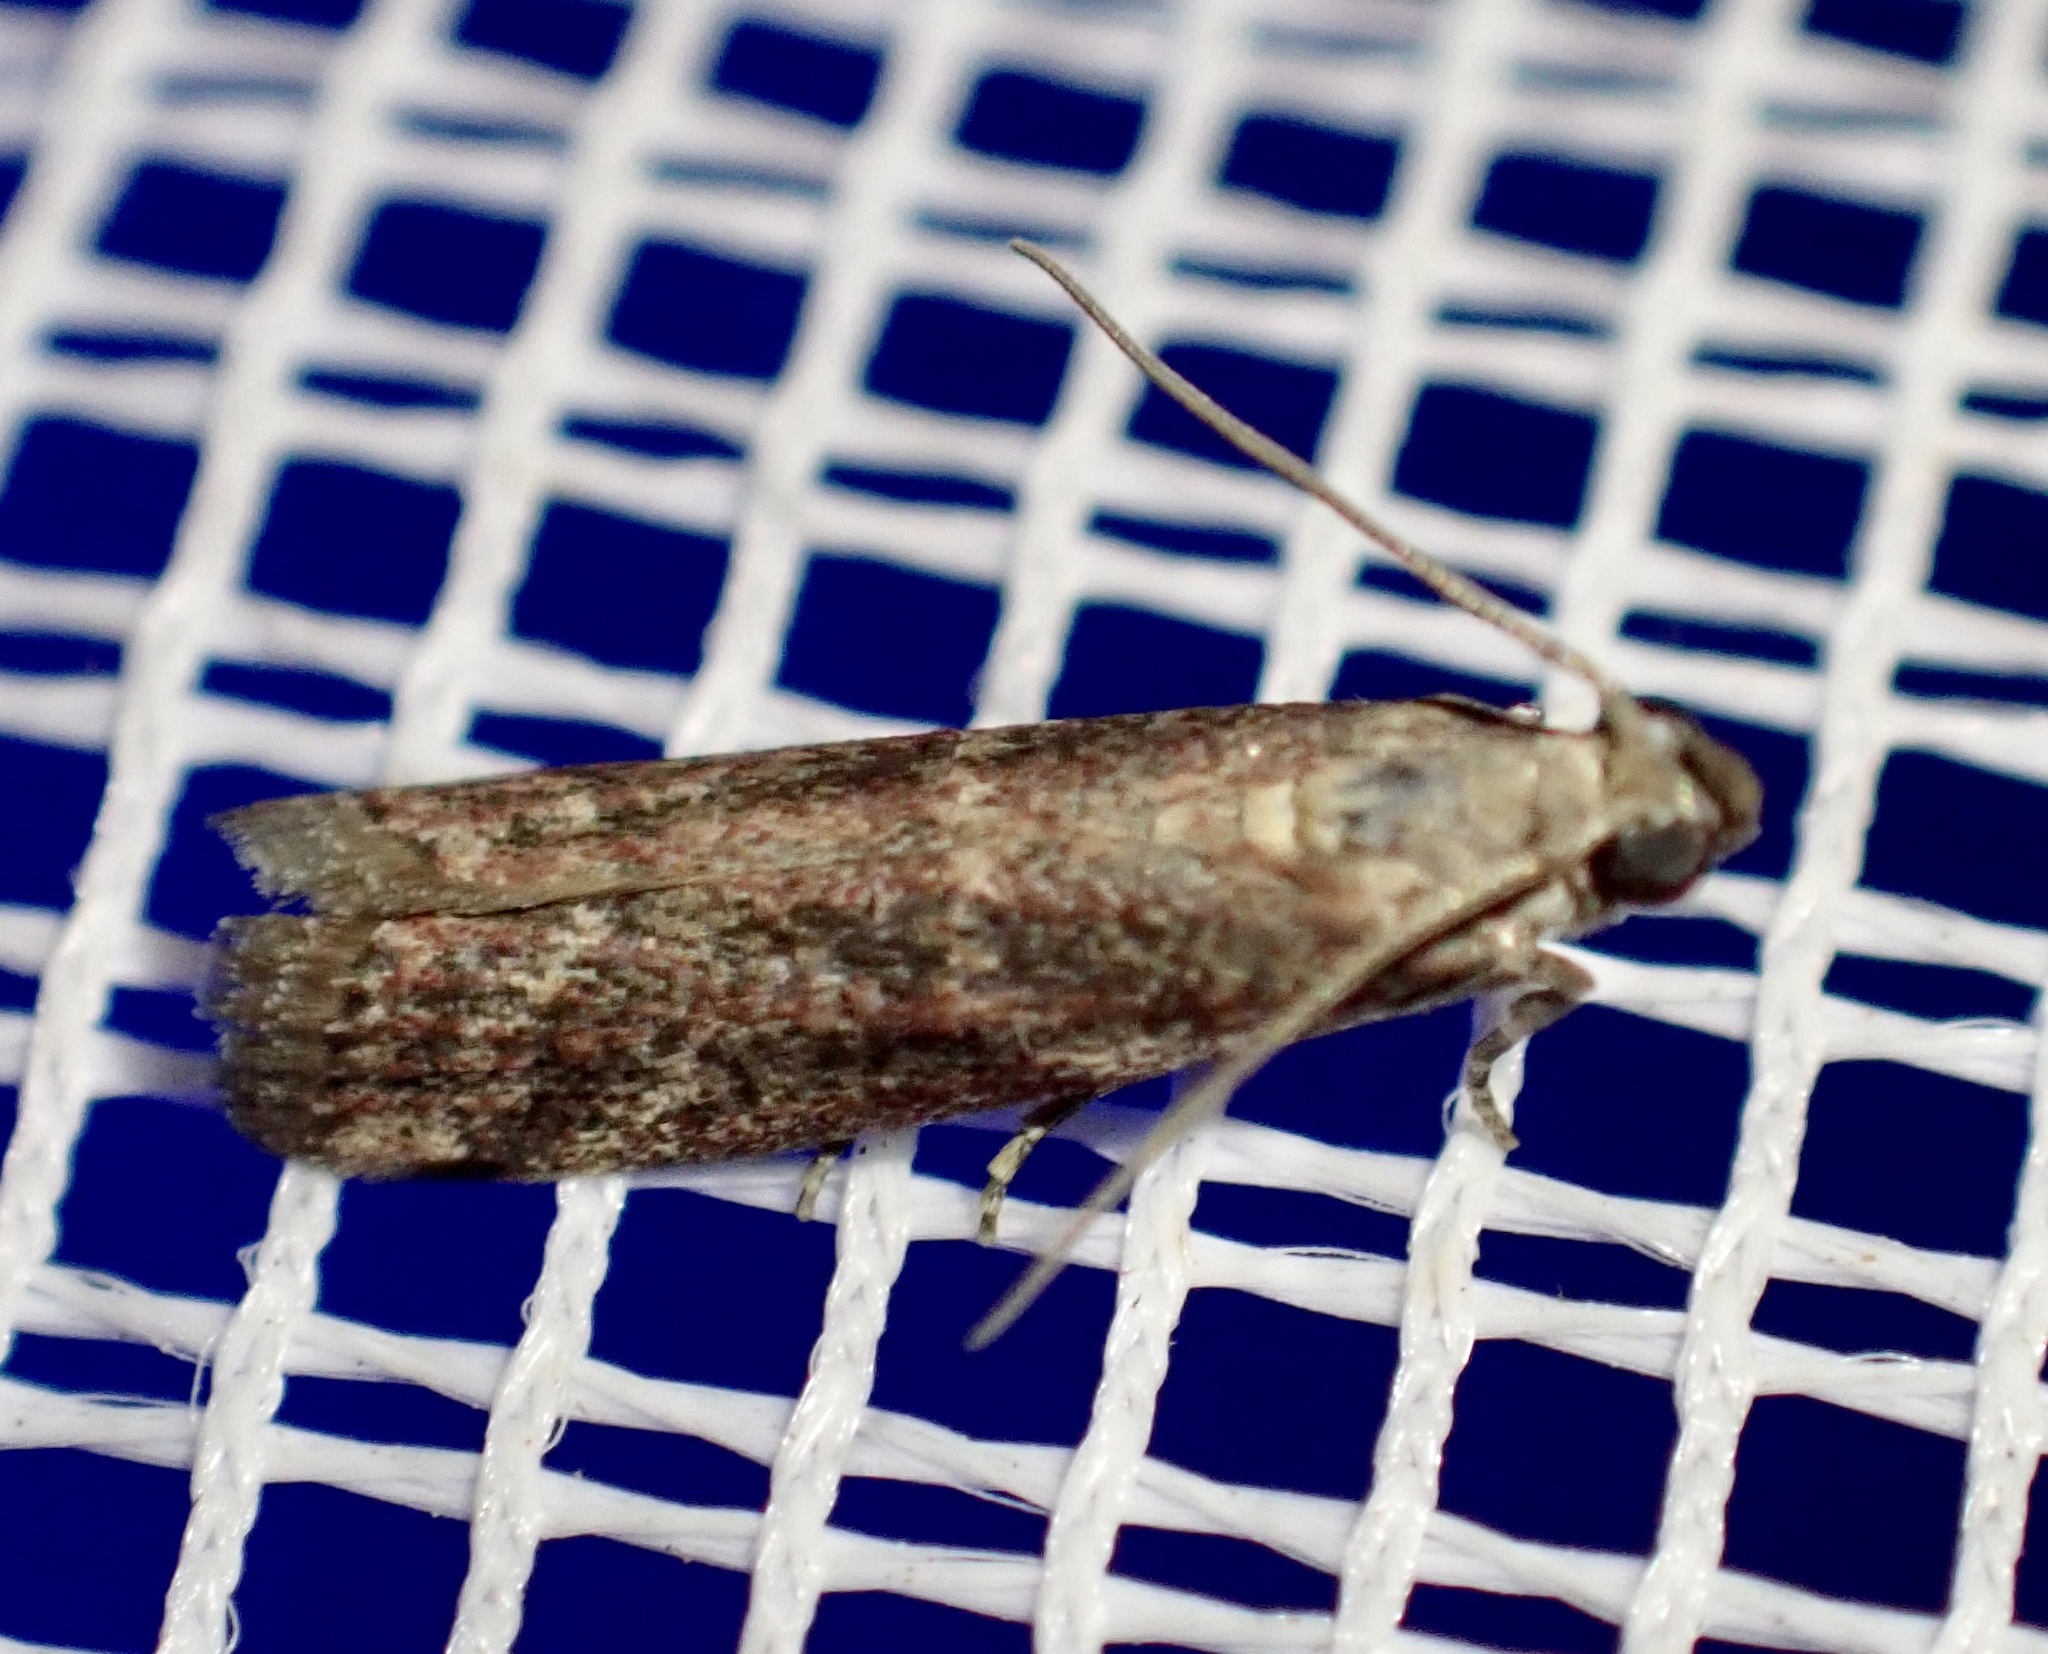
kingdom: Animalia
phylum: Arthropoda
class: Insecta
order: Lepidoptera
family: Pyralidae
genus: Cryptoblabes
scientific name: Cryptoblabes gnidiella
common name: Honeydew moth
